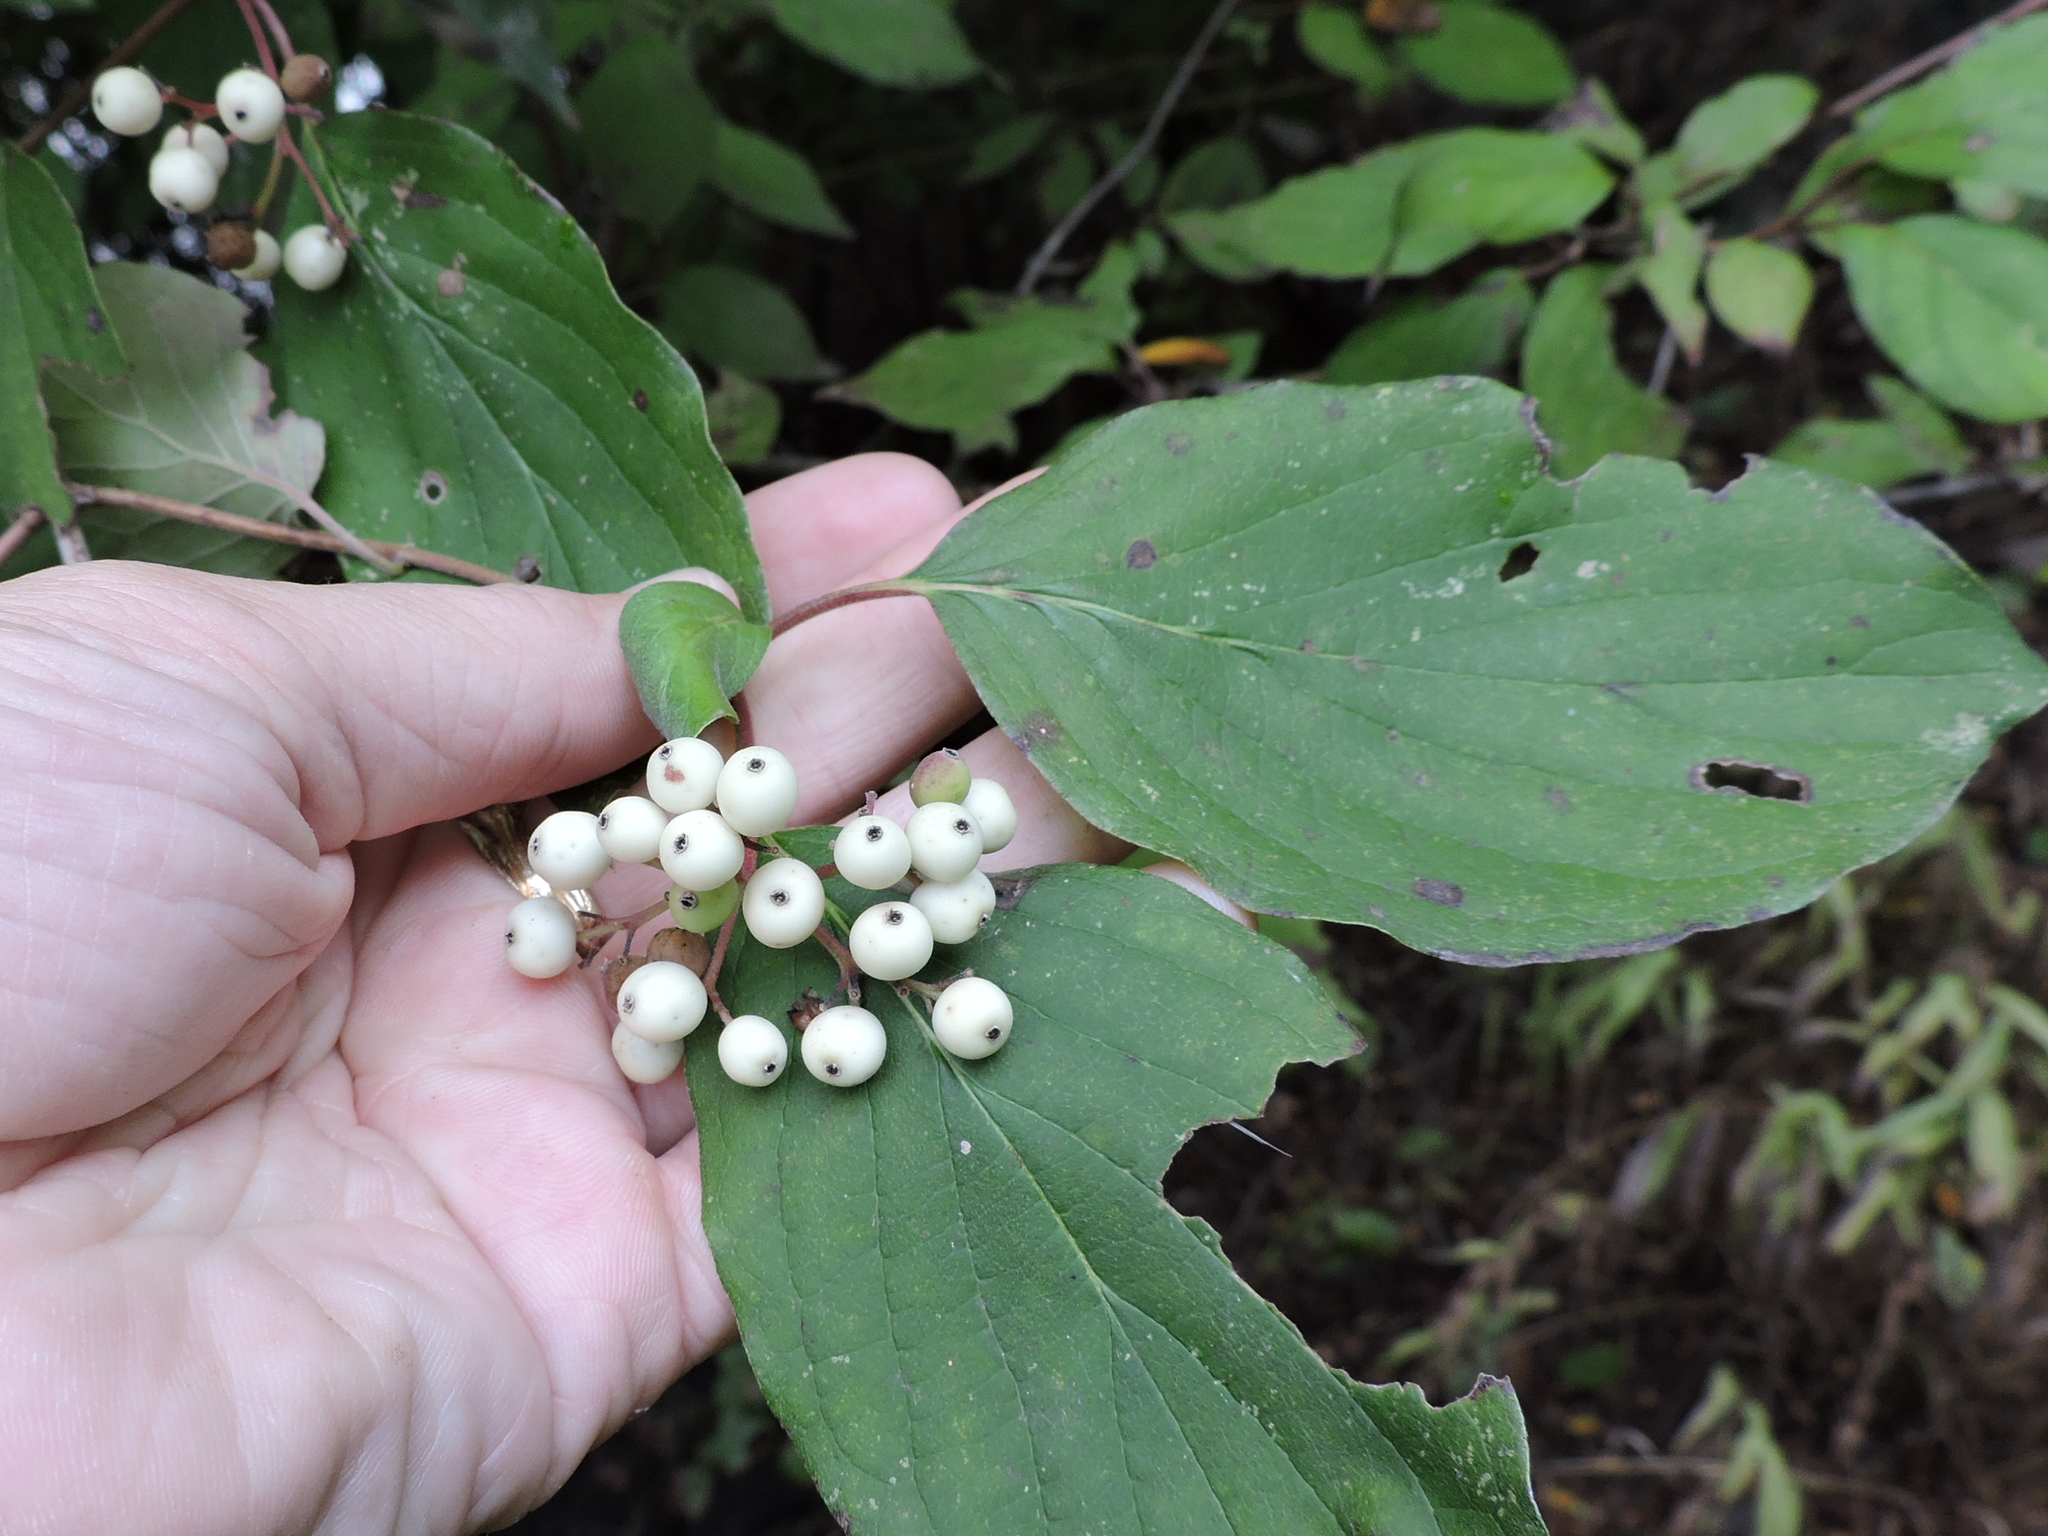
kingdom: Plantae
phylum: Tracheophyta
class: Magnoliopsida
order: Cornales
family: Cornaceae
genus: Cornus
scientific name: Cornus drummondii
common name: Rough-leaf dogwood
